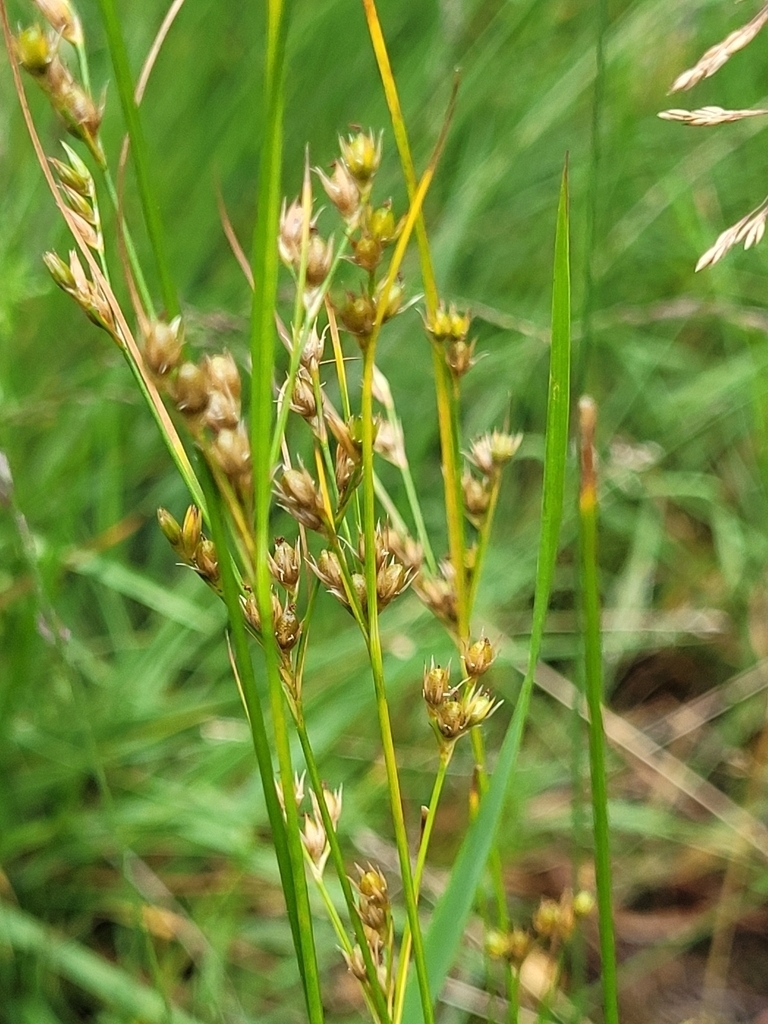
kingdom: Plantae
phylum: Tracheophyta
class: Liliopsida
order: Poales
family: Juncaceae
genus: Juncus
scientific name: Juncus tenuis
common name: Slender rush
